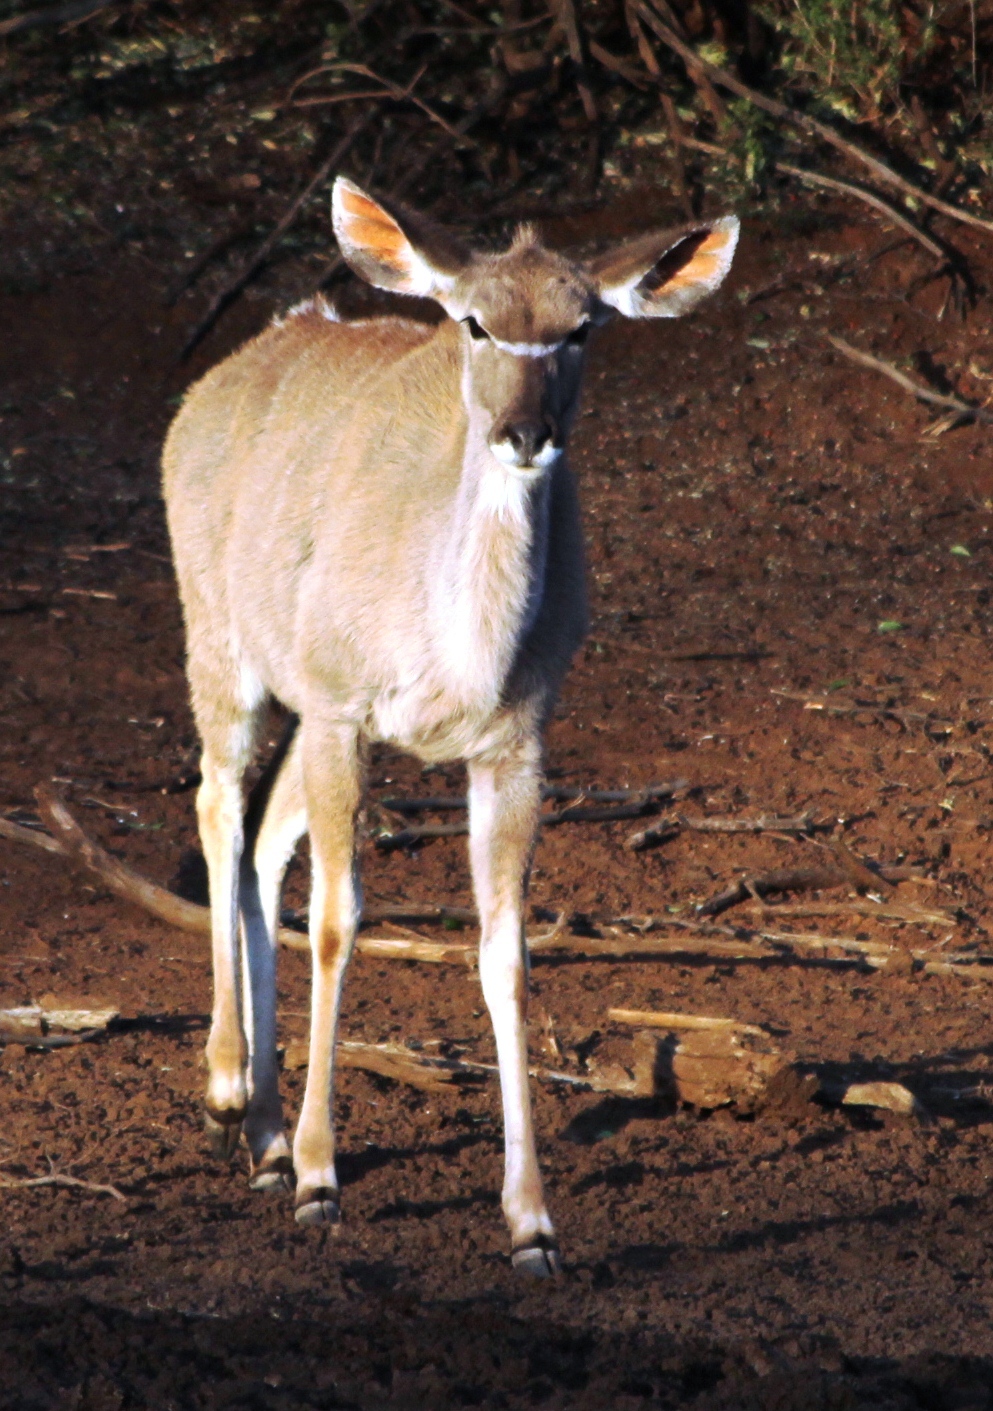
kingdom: Animalia
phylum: Chordata
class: Mammalia
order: Artiodactyla
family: Bovidae
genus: Tragelaphus
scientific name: Tragelaphus strepsiceros
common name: Greater kudu
